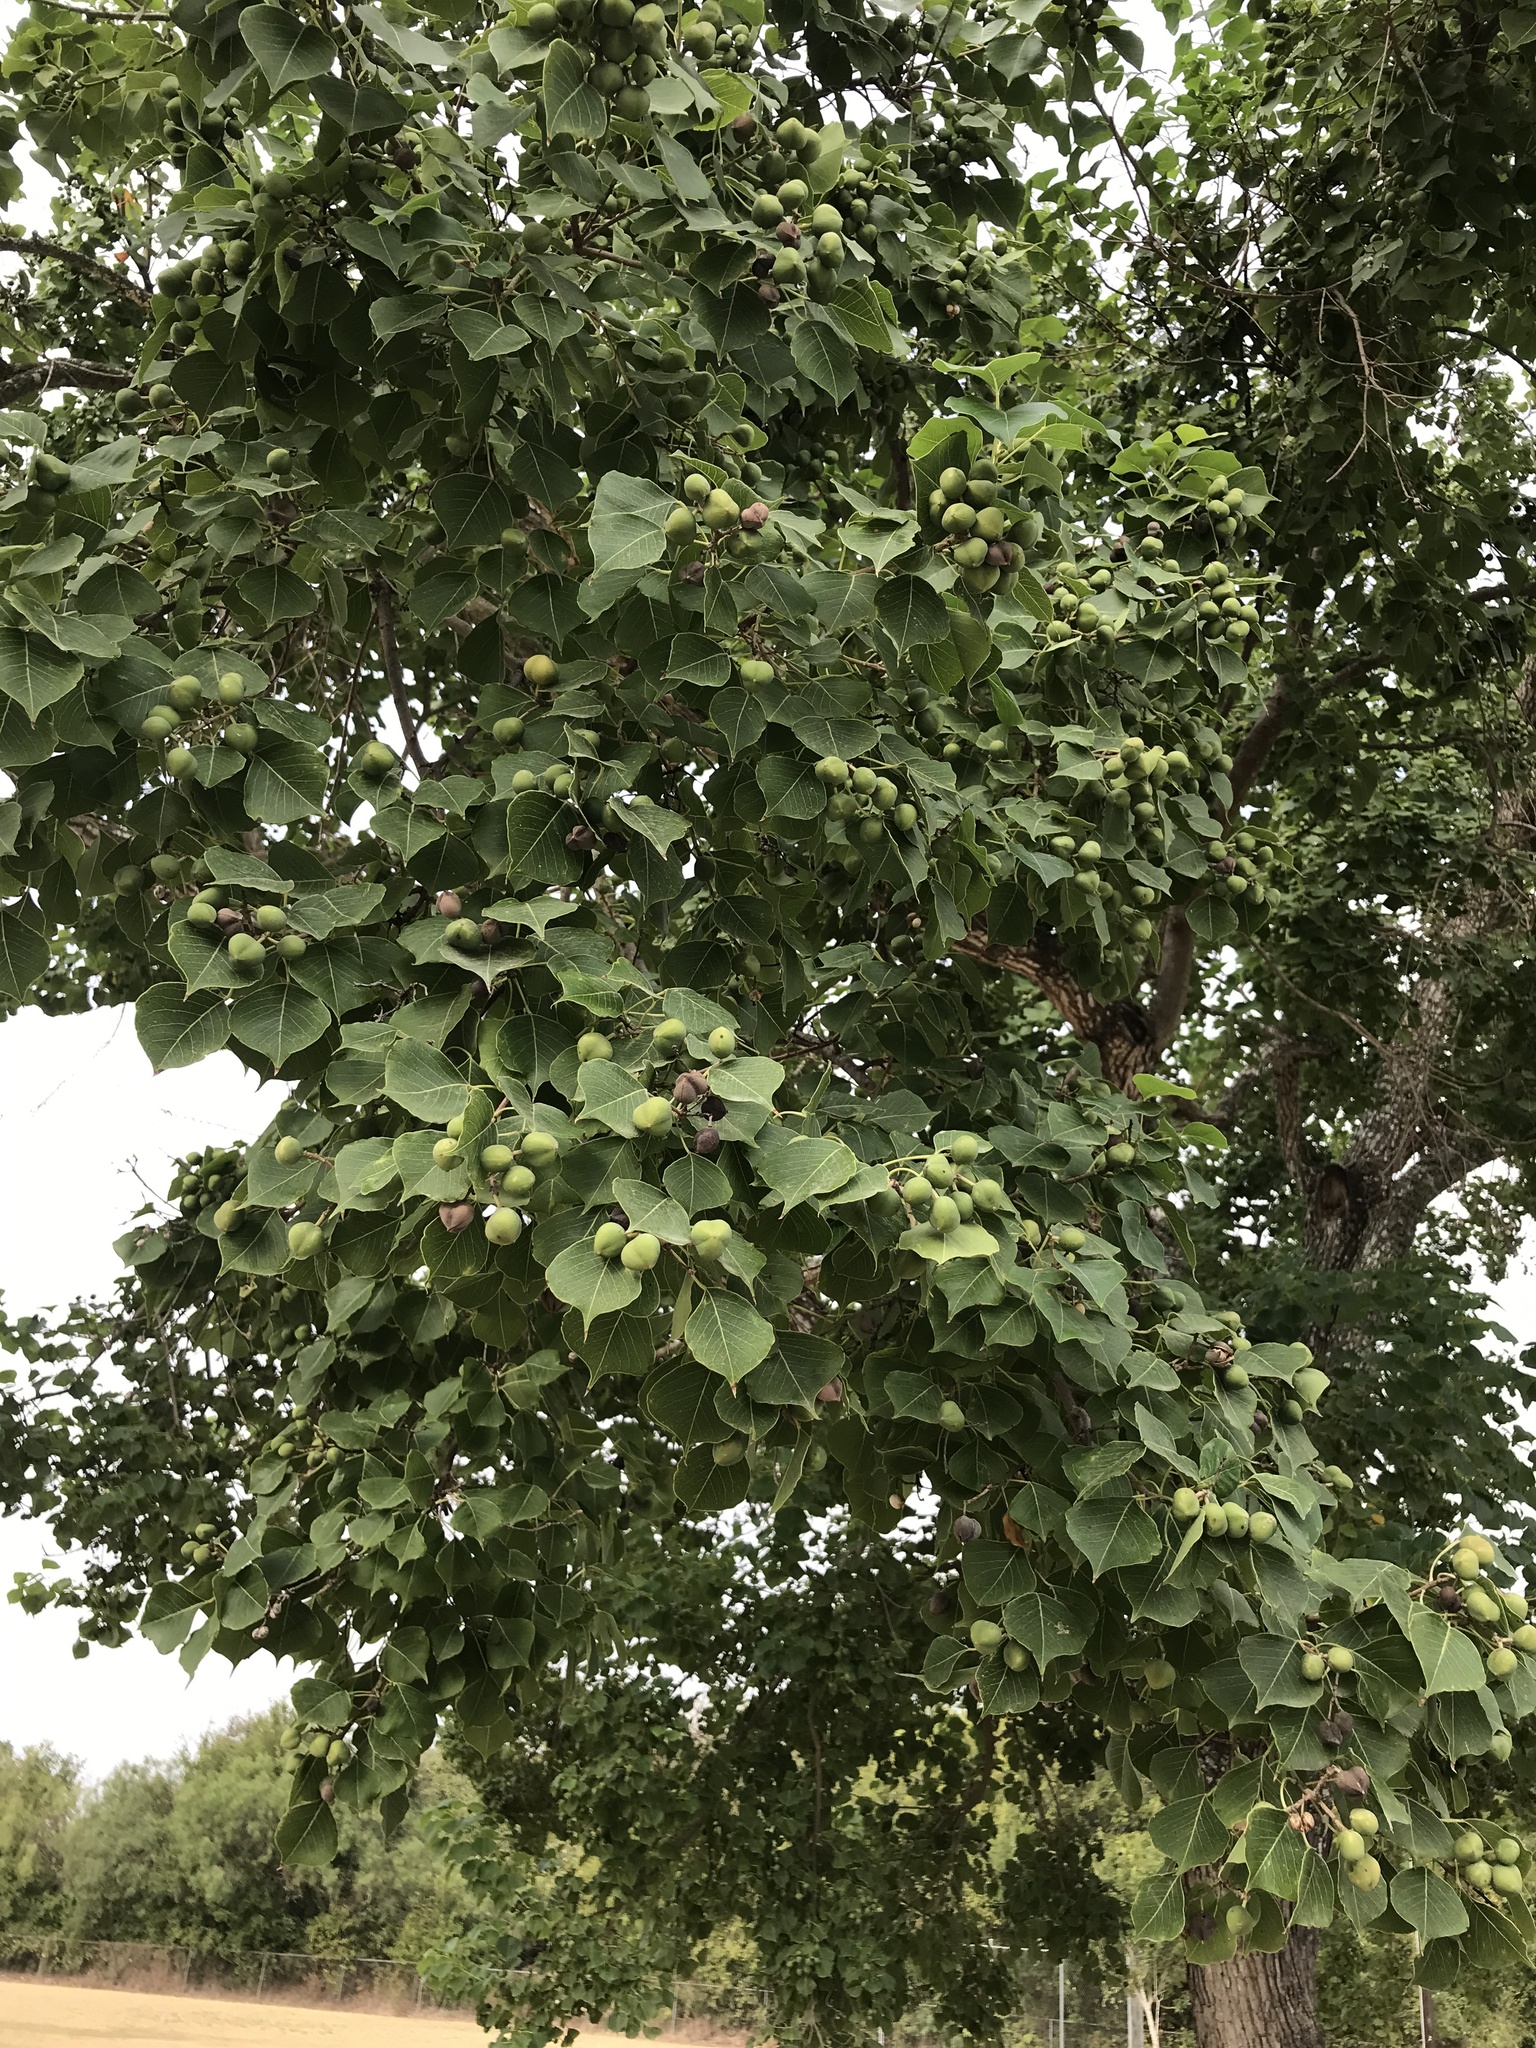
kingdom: Plantae
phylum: Tracheophyta
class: Magnoliopsida
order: Malpighiales
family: Euphorbiaceae
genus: Triadica
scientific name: Triadica sebifera
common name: Chinese tallow
